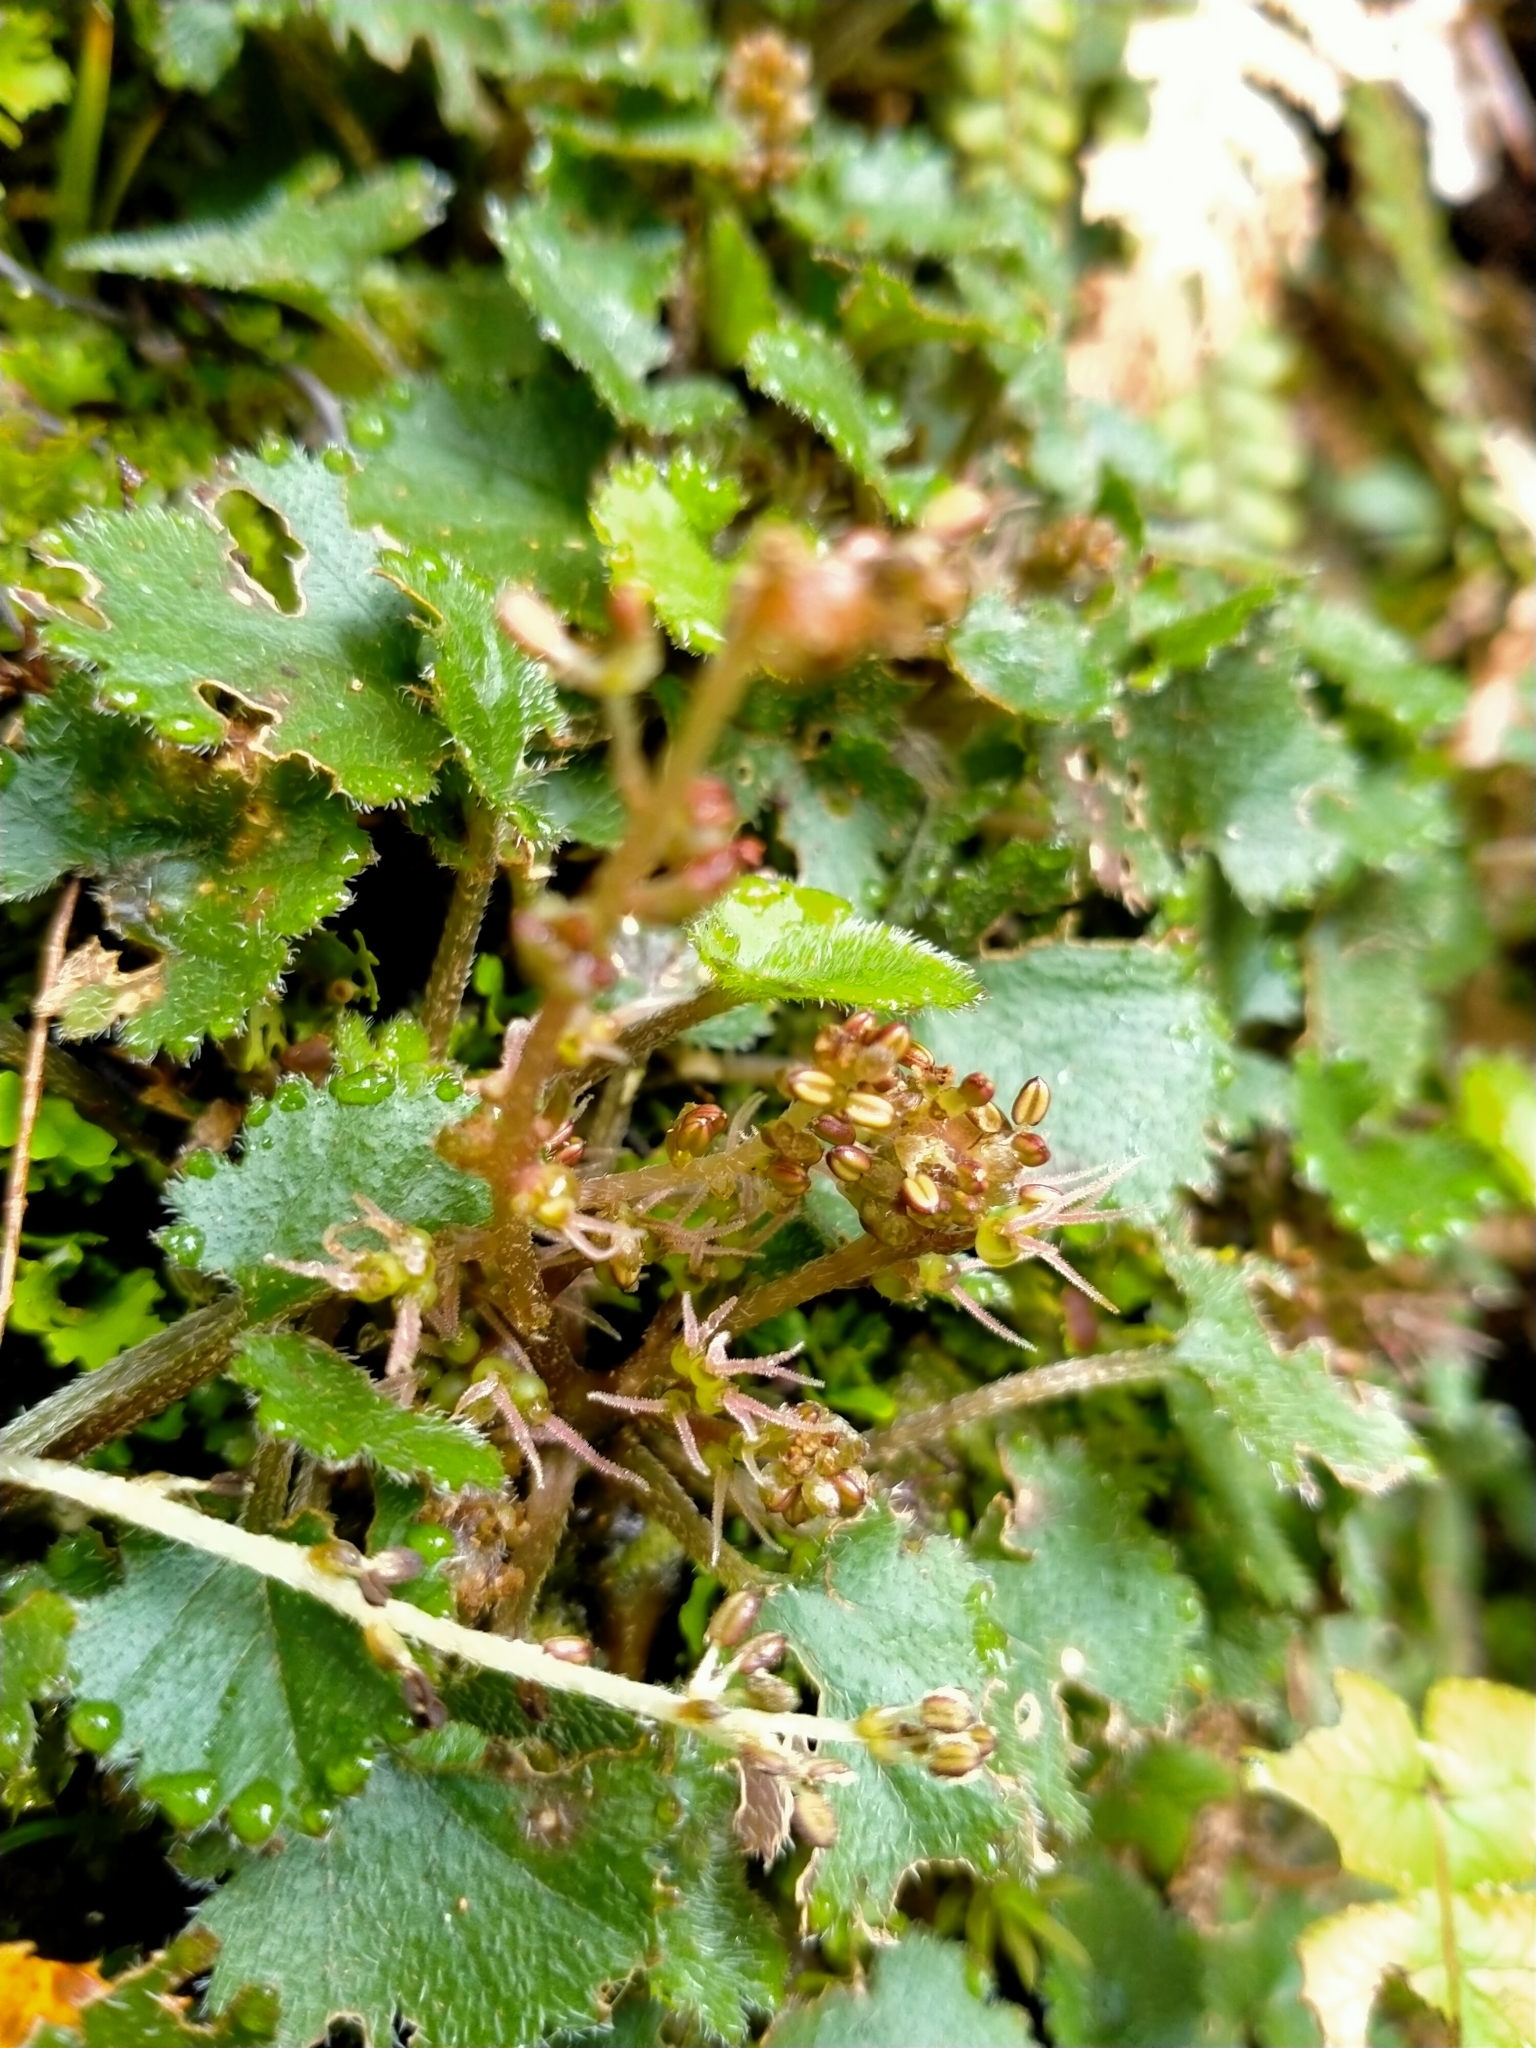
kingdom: Plantae
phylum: Tracheophyta
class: Magnoliopsida
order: Gunnerales
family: Gunneraceae
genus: Gunnera
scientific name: Gunnera monoica
